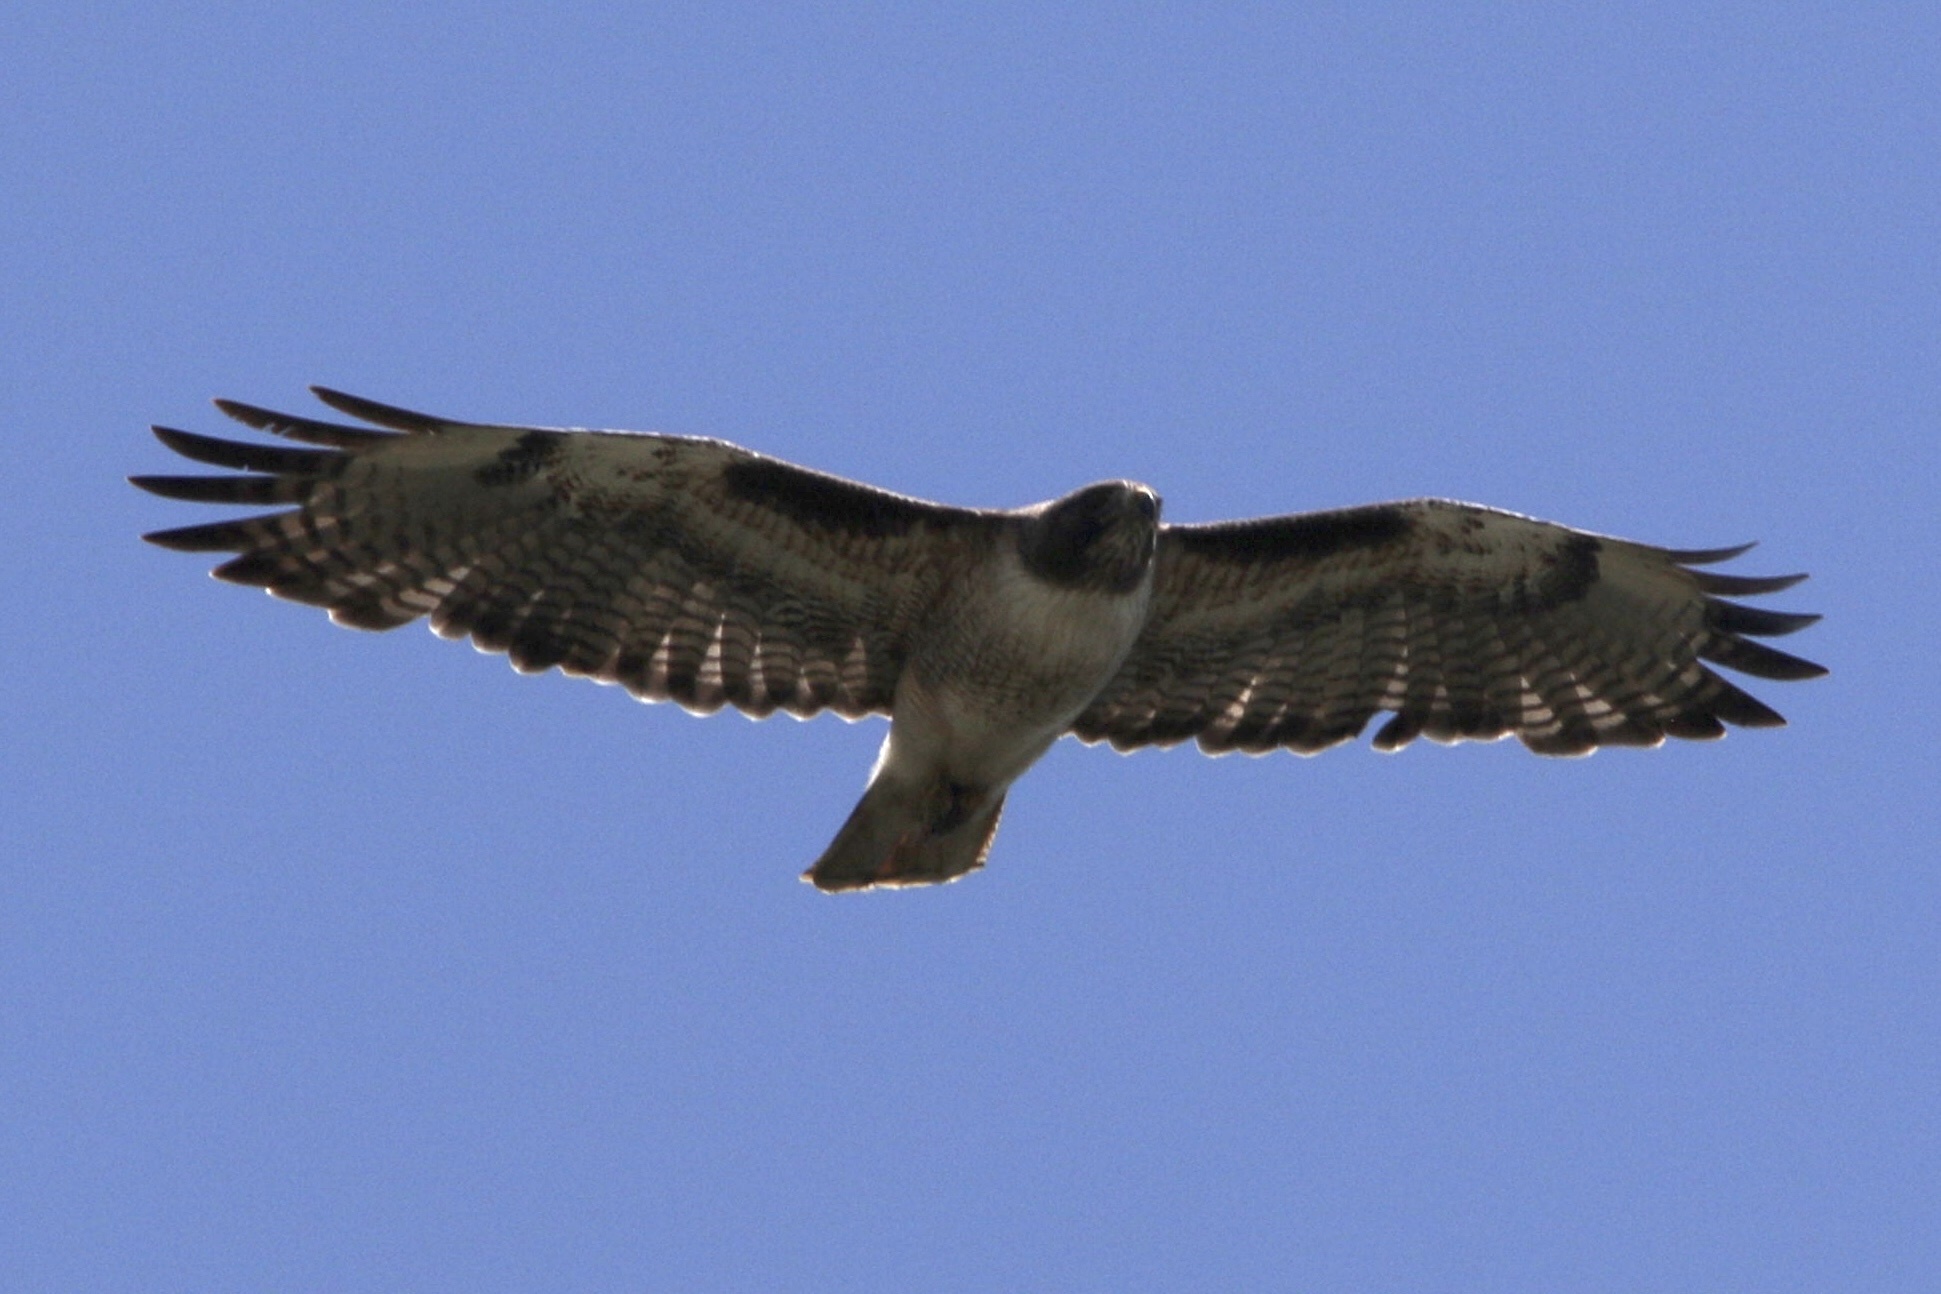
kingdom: Animalia
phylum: Chordata
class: Aves
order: Accipitriformes
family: Accipitridae
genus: Buteo
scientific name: Buteo jamaicensis
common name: Red-tailed hawk
